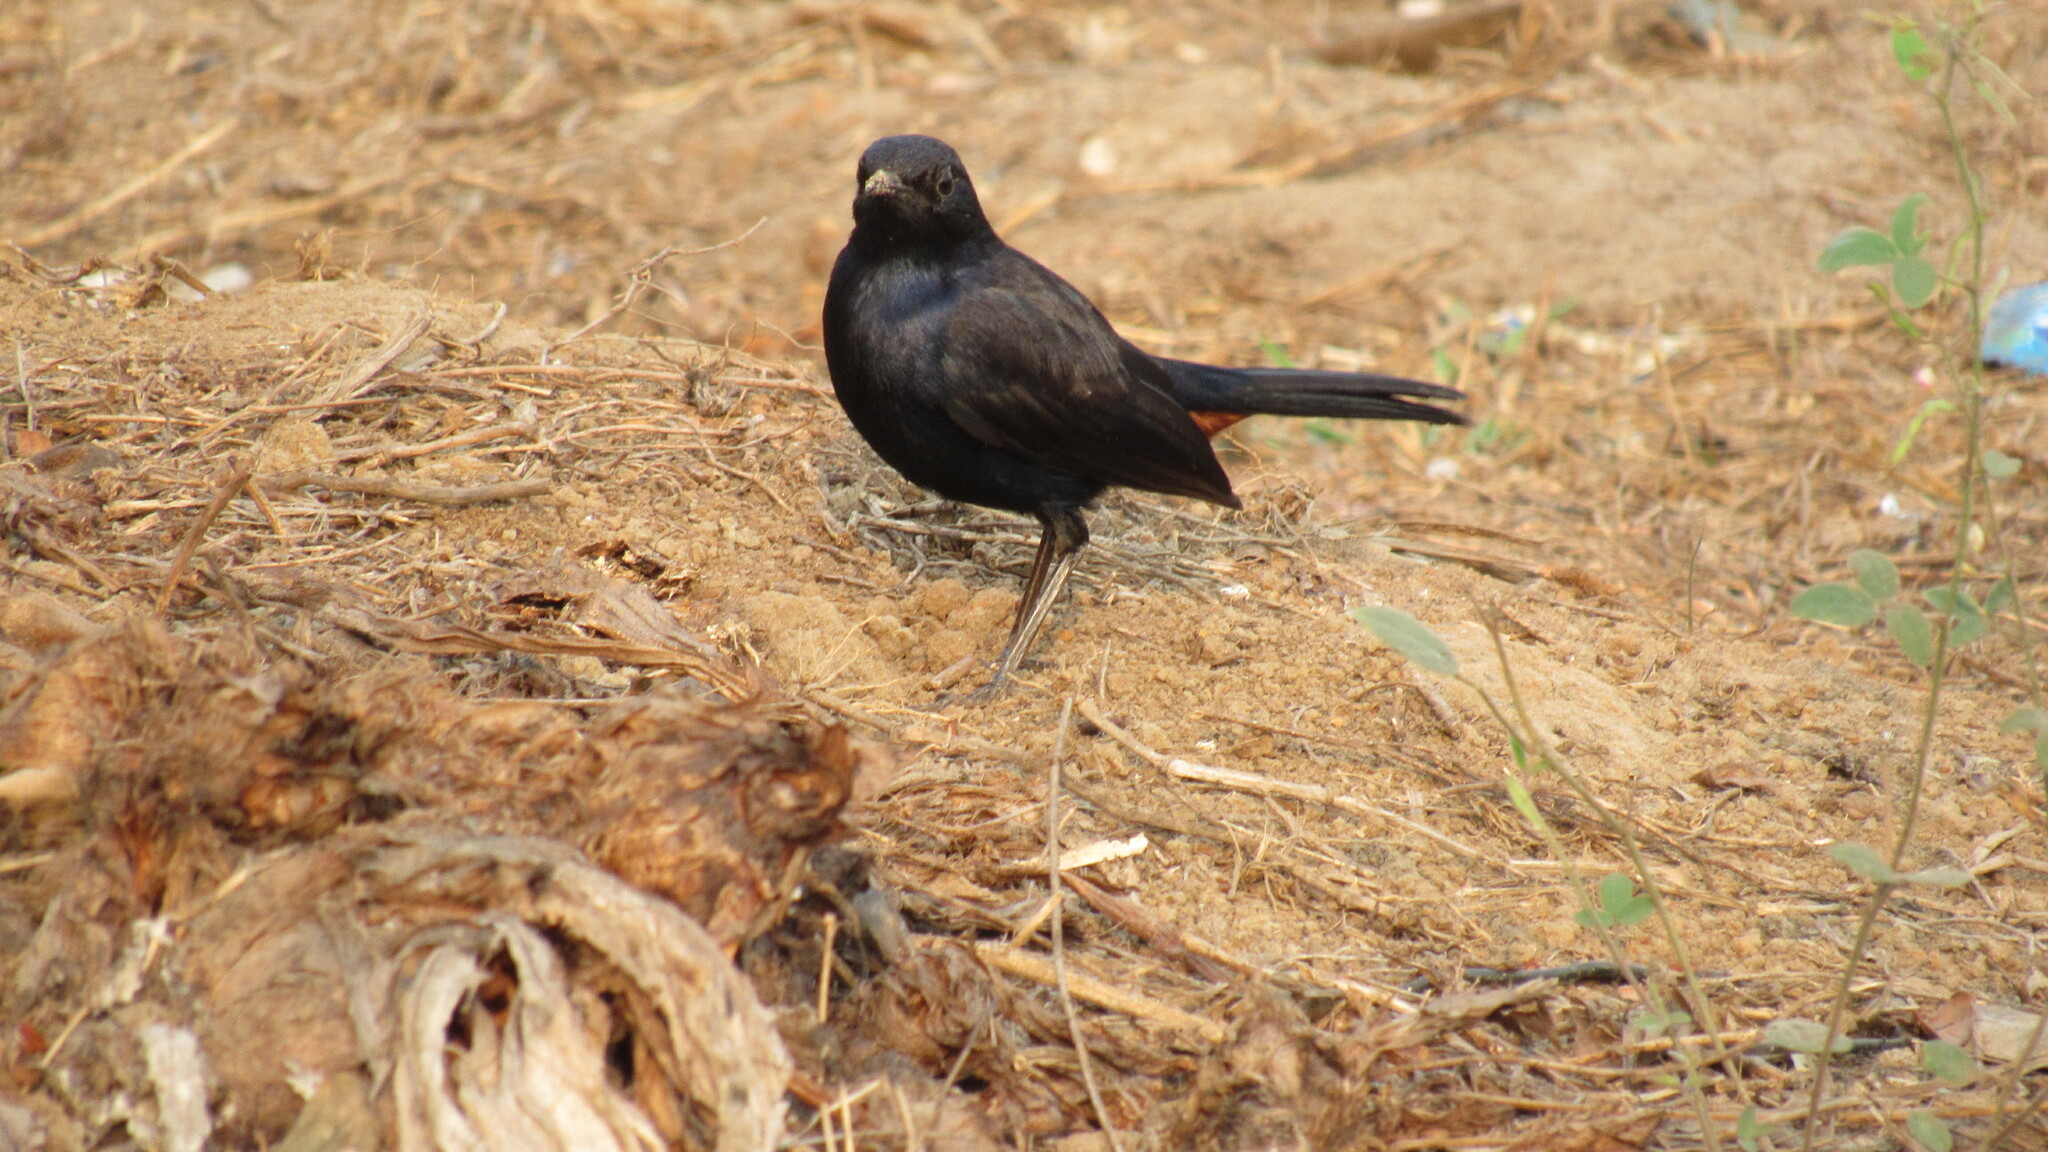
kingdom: Animalia
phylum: Chordata
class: Aves
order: Passeriformes
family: Muscicapidae
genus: Saxicoloides
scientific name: Saxicoloides fulicatus
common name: Indian robin
